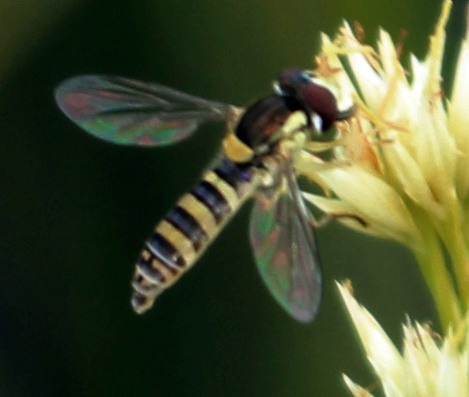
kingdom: Animalia
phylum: Arthropoda
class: Insecta
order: Diptera
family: Syrphidae
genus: Sphaerophoria
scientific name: Sphaerophoria contigua
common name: Tufted globetail
